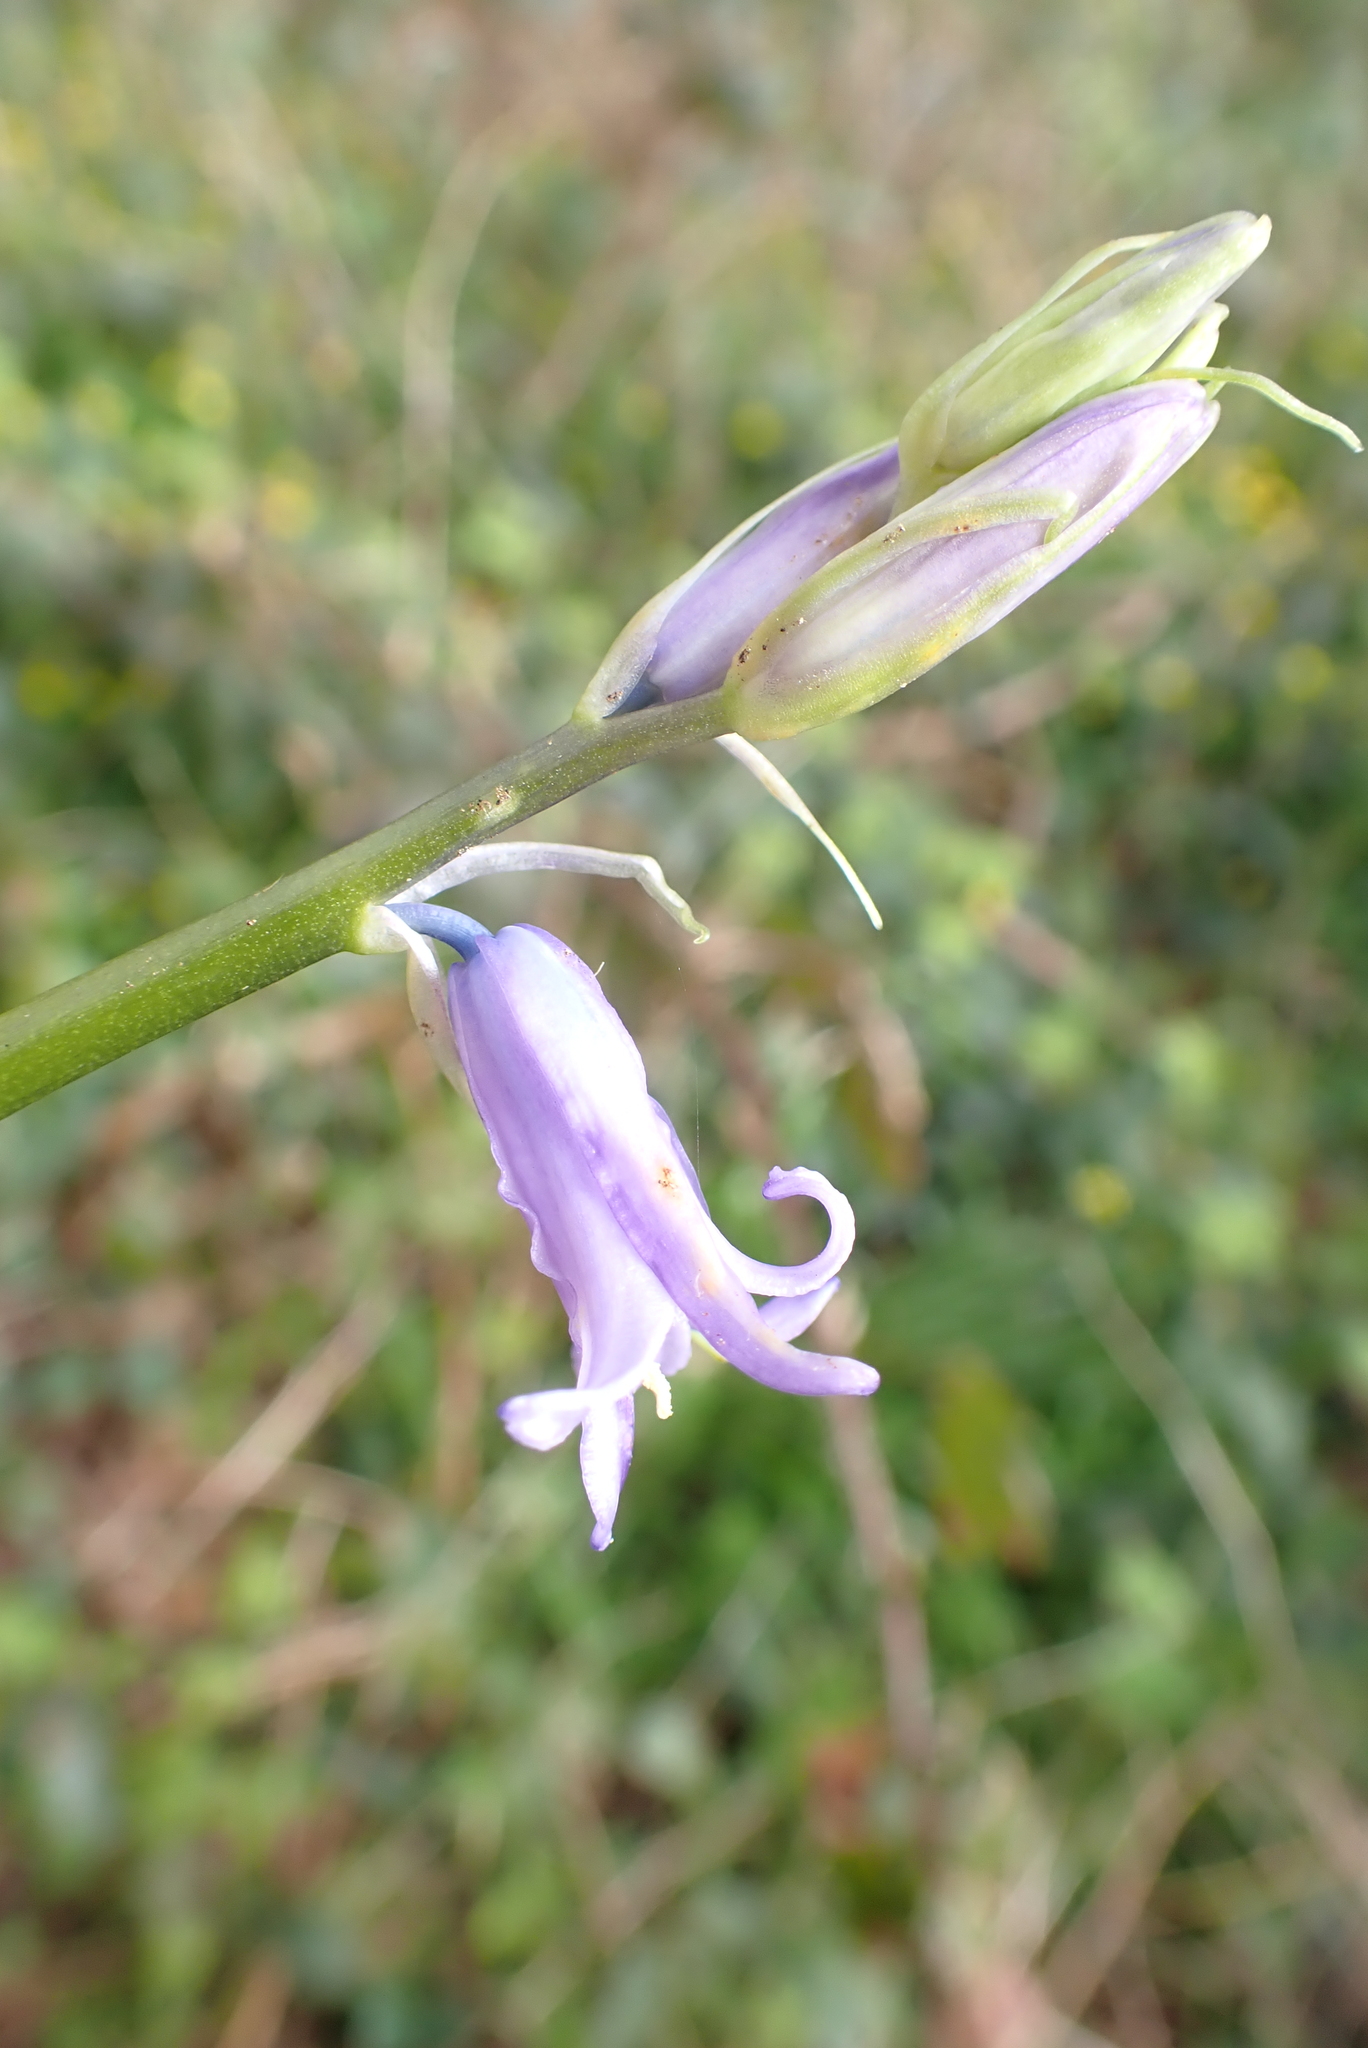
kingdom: Plantae
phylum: Tracheophyta
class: Liliopsida
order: Asparagales
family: Asparagaceae
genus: Hyacinthoides
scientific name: Hyacinthoides massartiana
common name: Hyacinthoides
